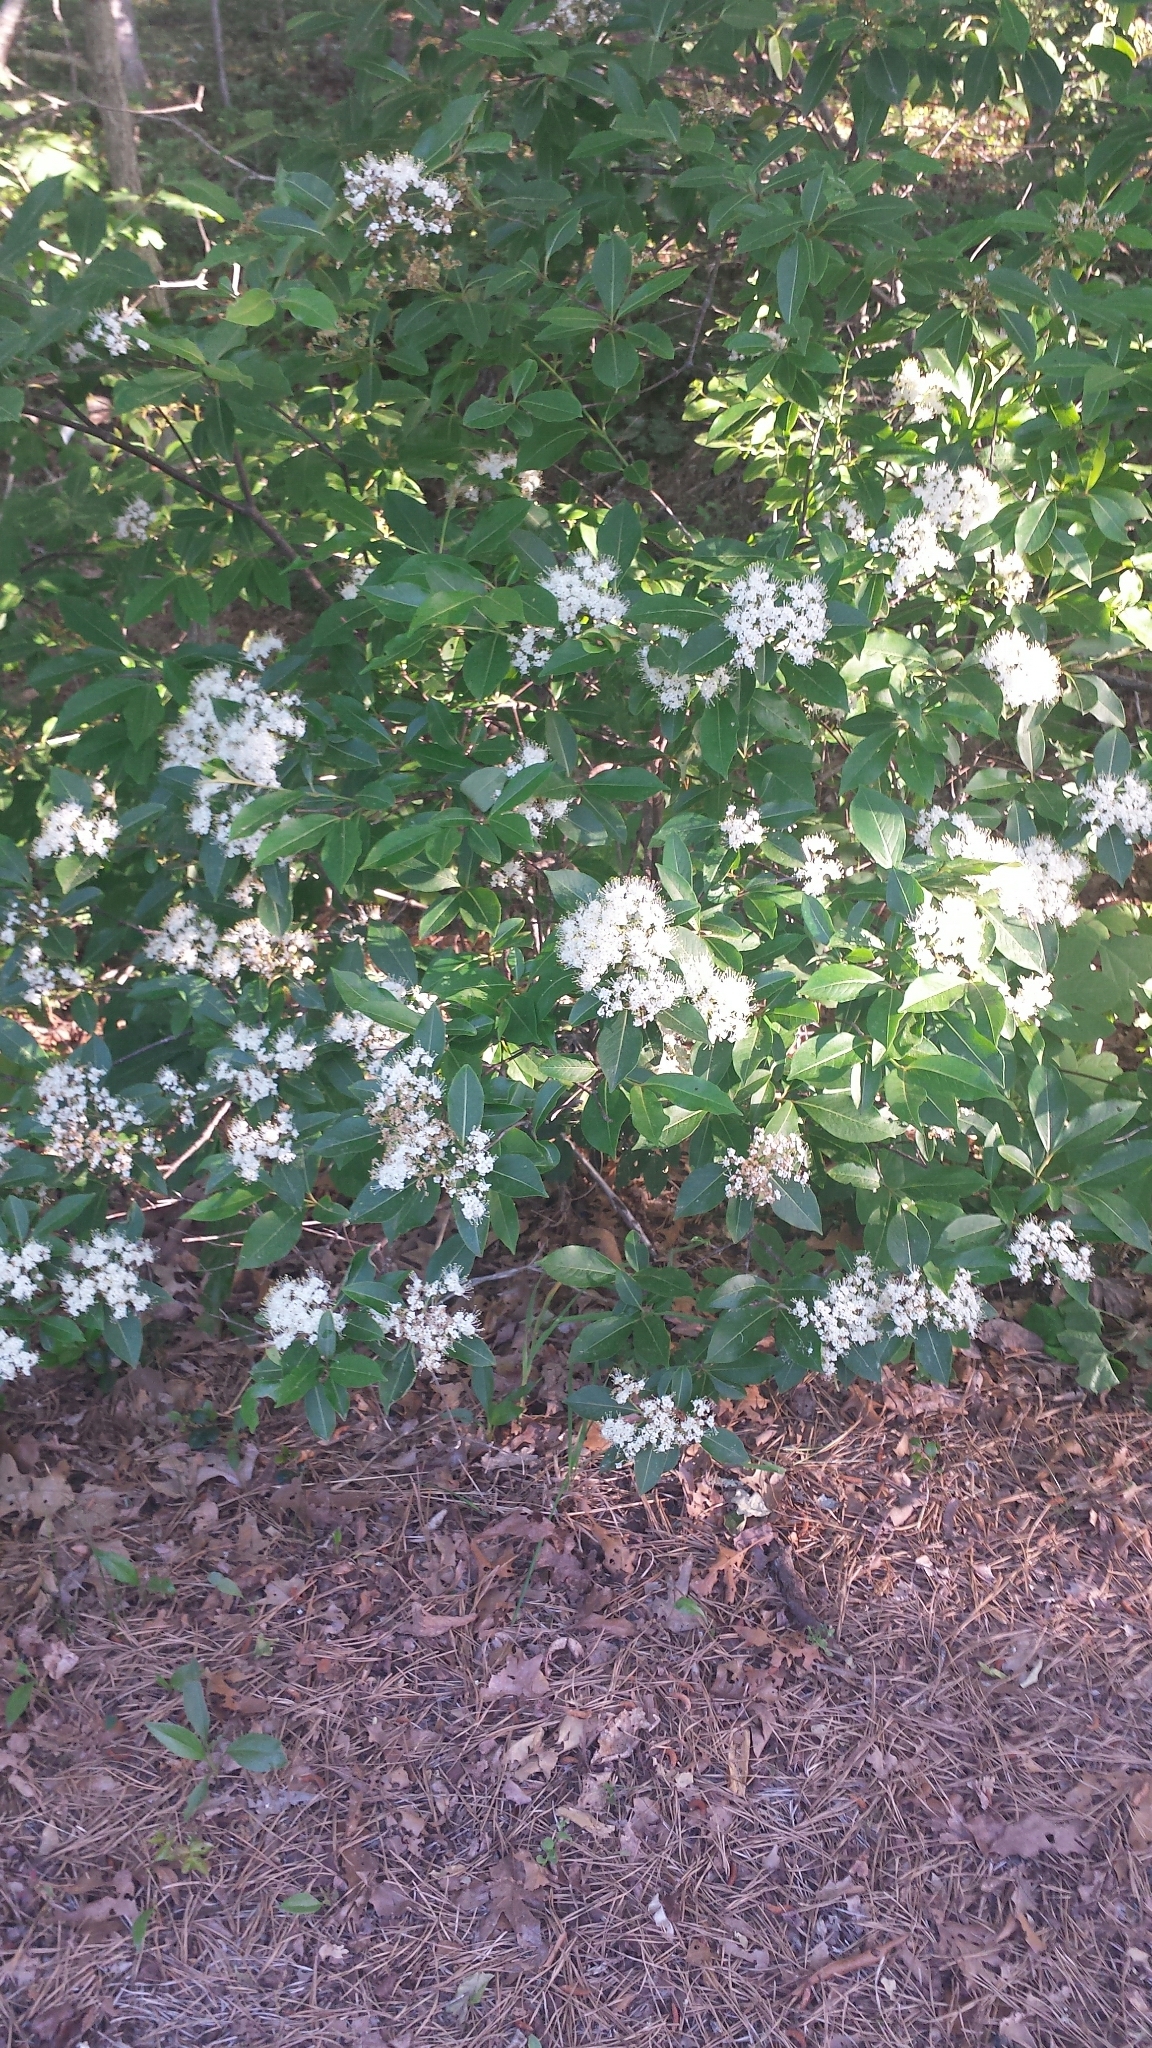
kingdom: Plantae
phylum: Tracheophyta
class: Magnoliopsida
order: Dipsacales
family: Viburnaceae
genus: Viburnum
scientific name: Viburnum cassinoides
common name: Swamp haw
